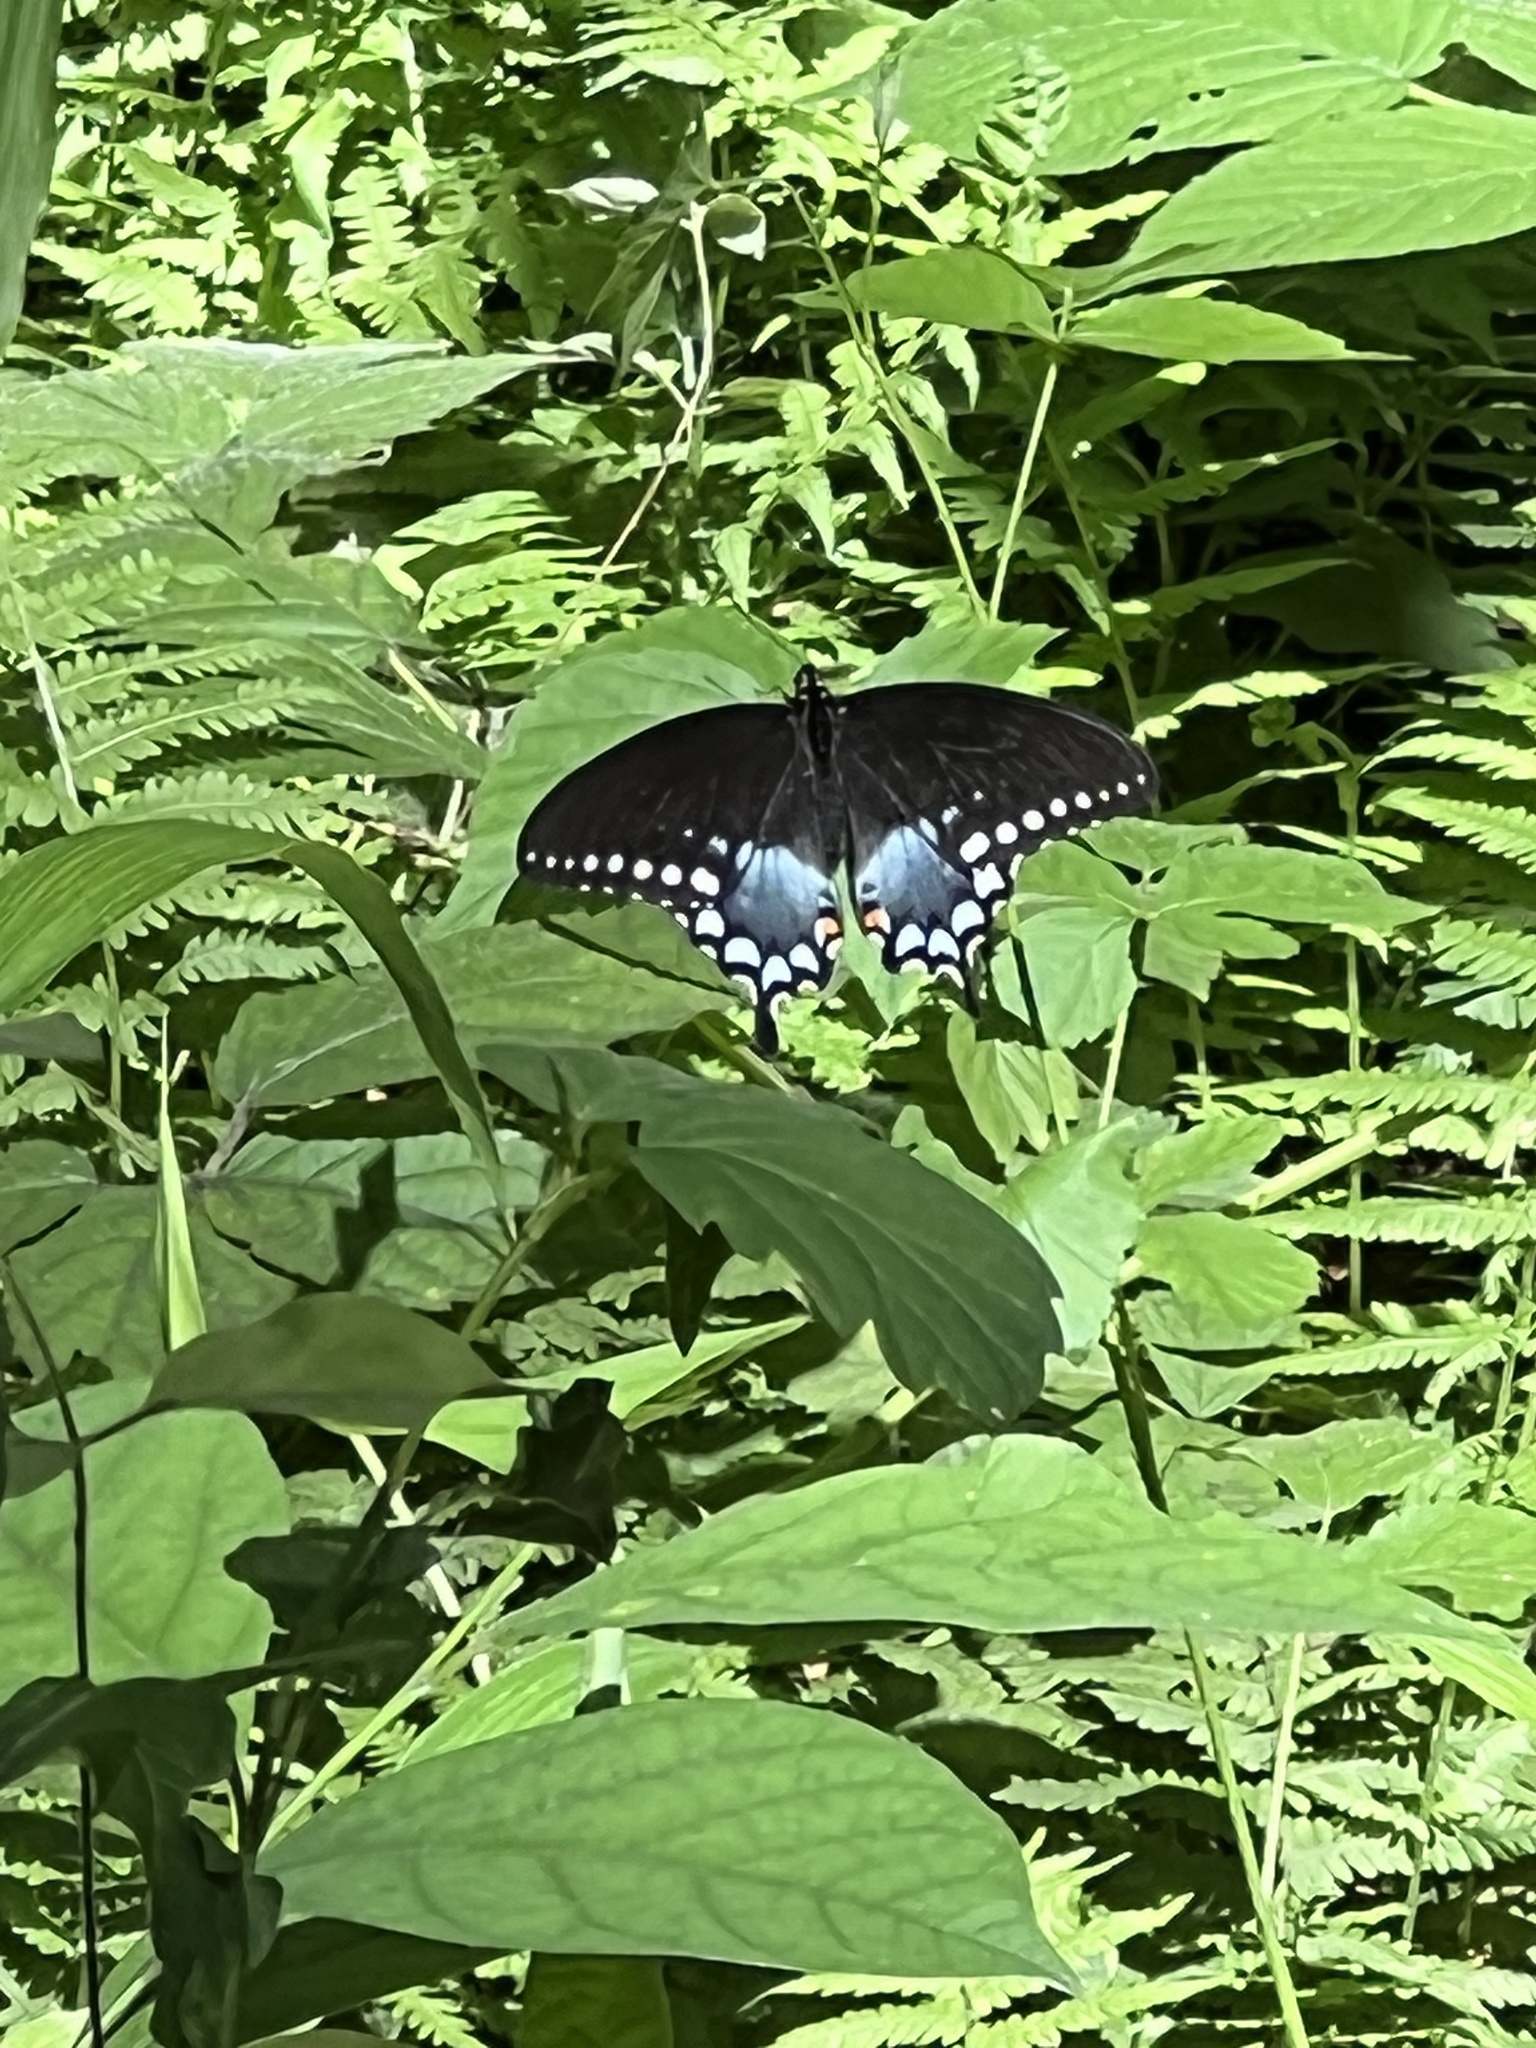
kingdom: Animalia
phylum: Arthropoda
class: Insecta
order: Lepidoptera
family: Papilionidae
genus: Papilio
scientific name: Papilio troilus
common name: Spicebush swallowtail
